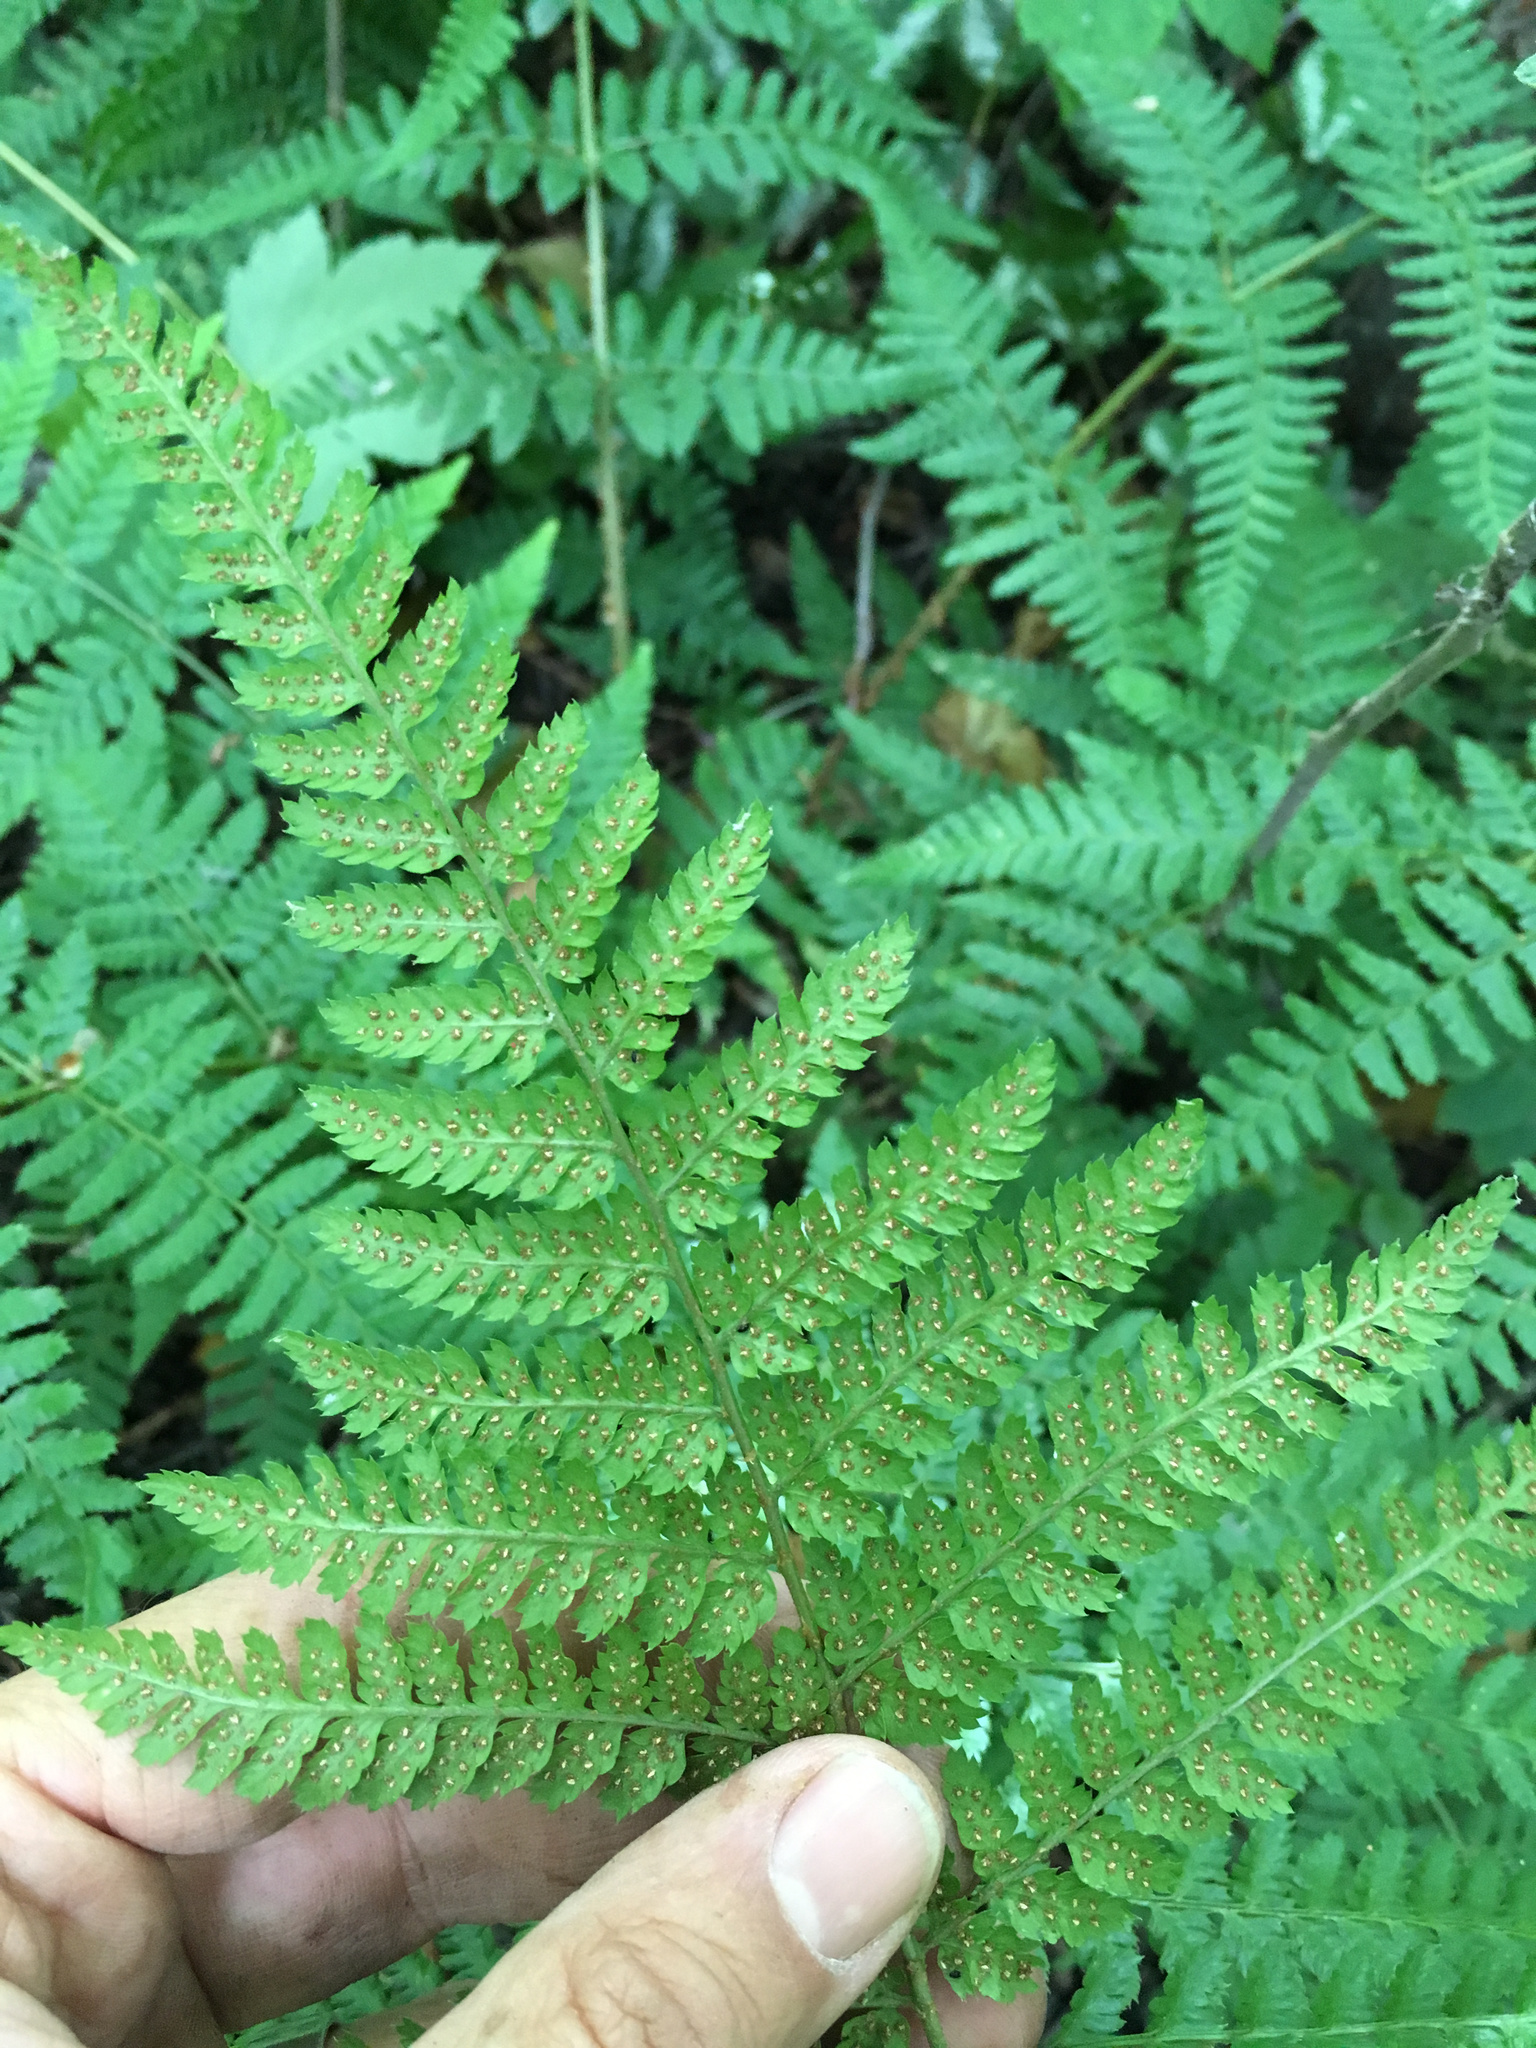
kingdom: Plantae
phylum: Tracheophyta
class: Polypodiopsida
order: Polypodiales
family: Dryopteridaceae
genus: Dryopteris
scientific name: Dryopteris dilatata
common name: Broad buckler-fern
